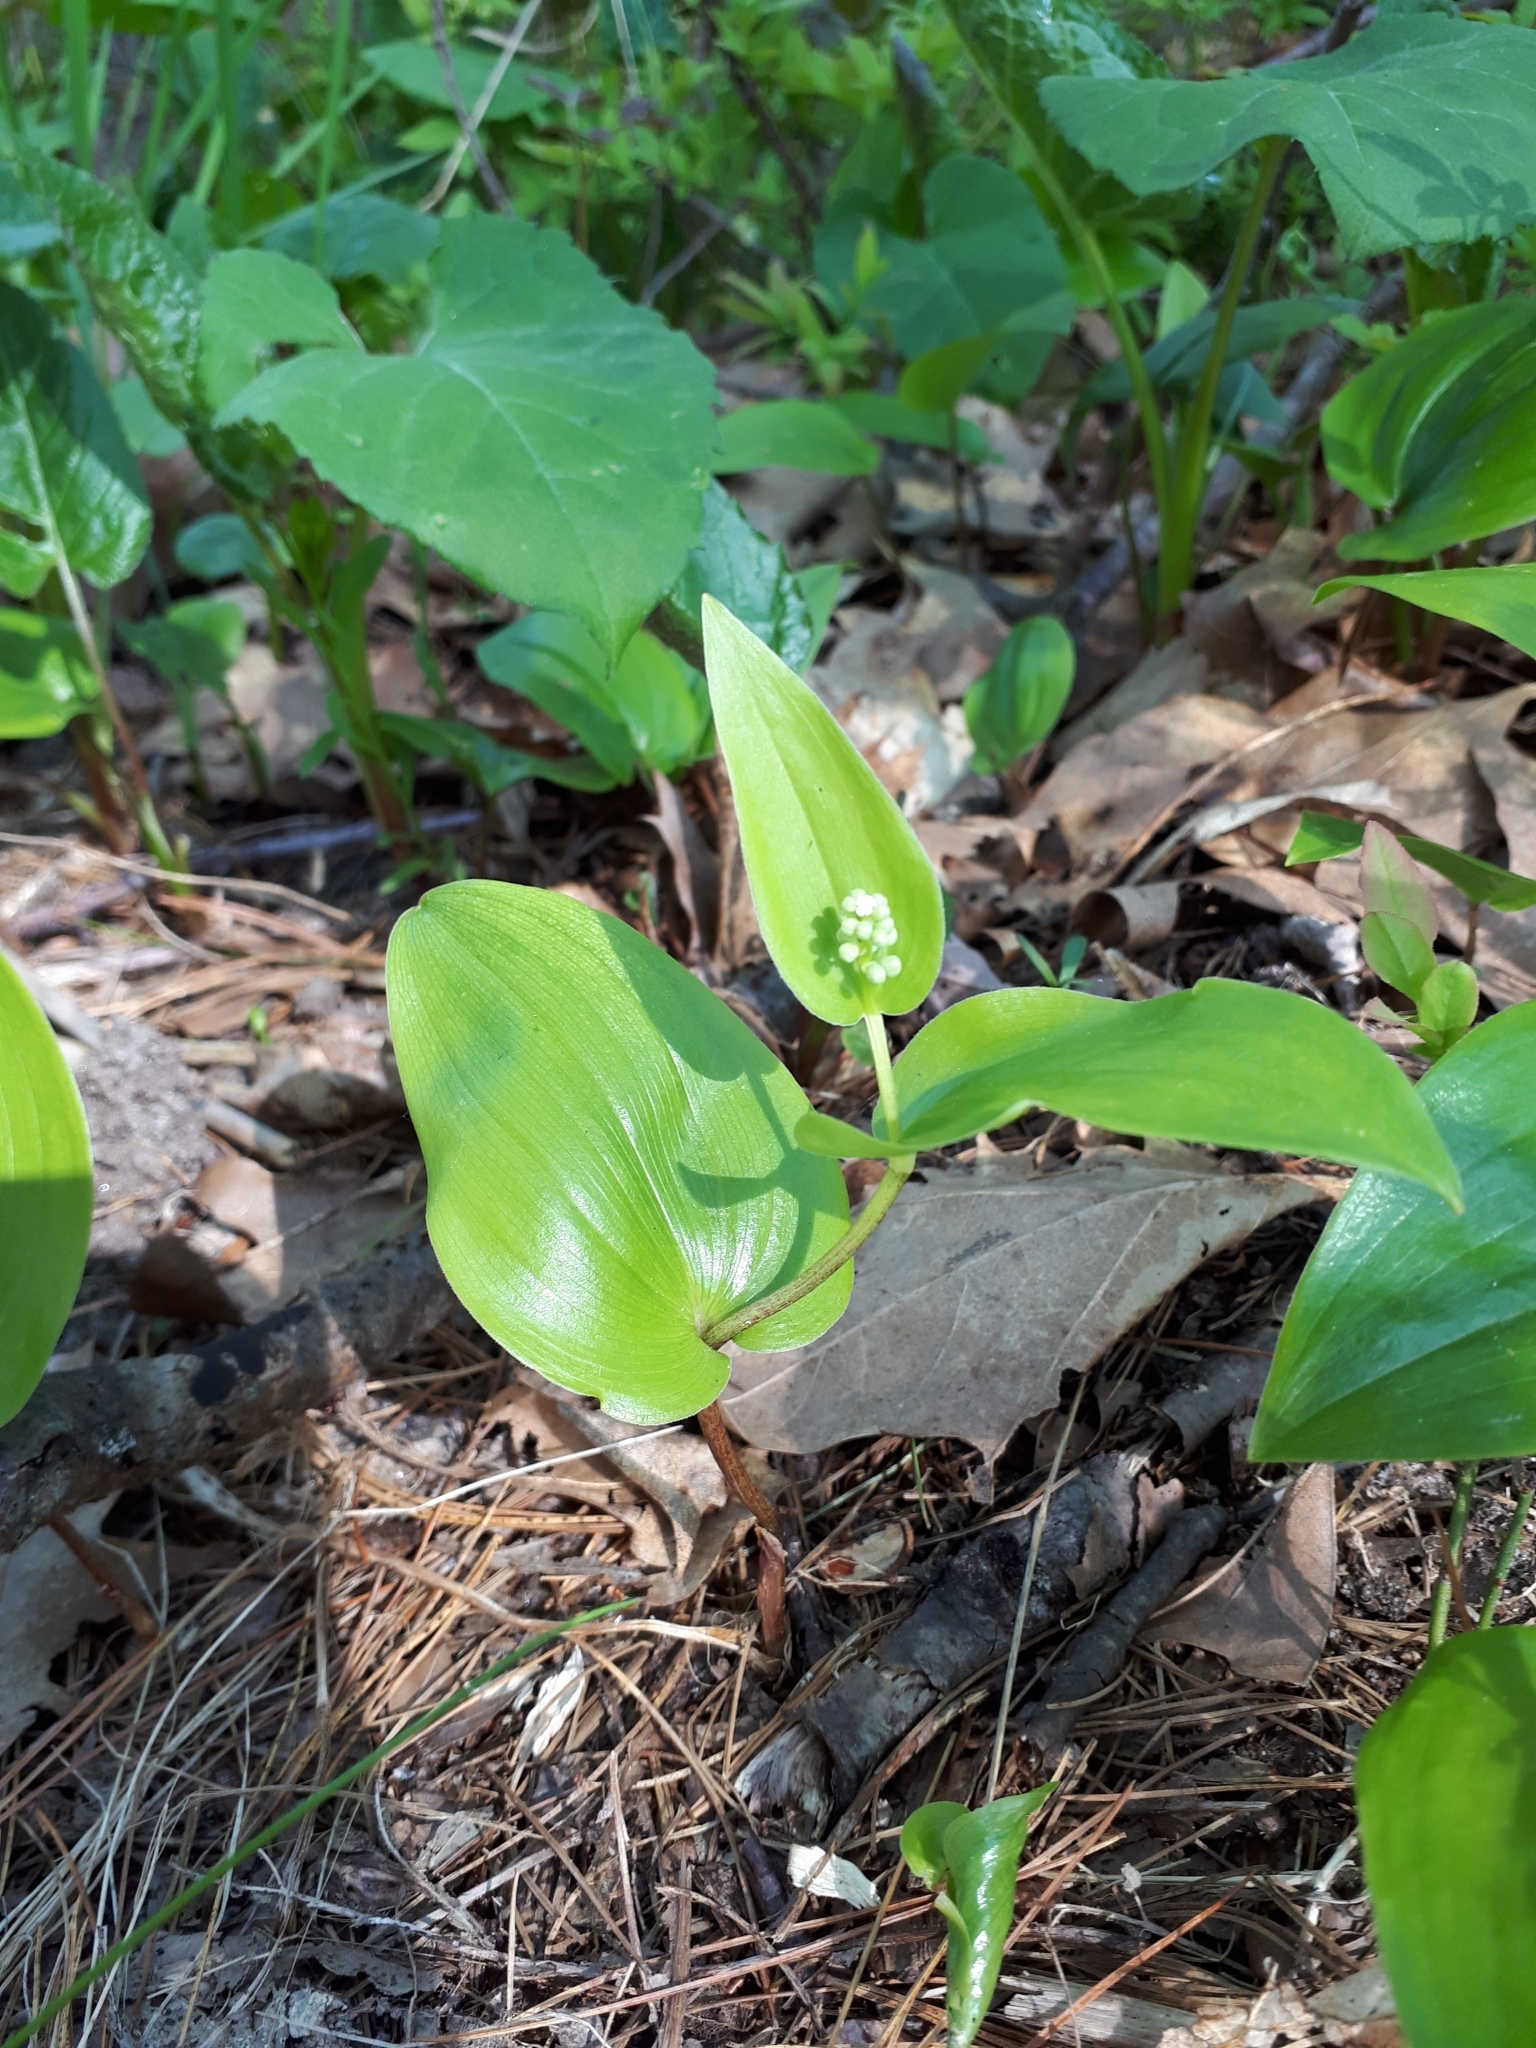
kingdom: Plantae
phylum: Tracheophyta
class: Liliopsida
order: Asparagales
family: Asparagaceae
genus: Maianthemum
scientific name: Maianthemum canadense
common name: False lily-of-the-valley
